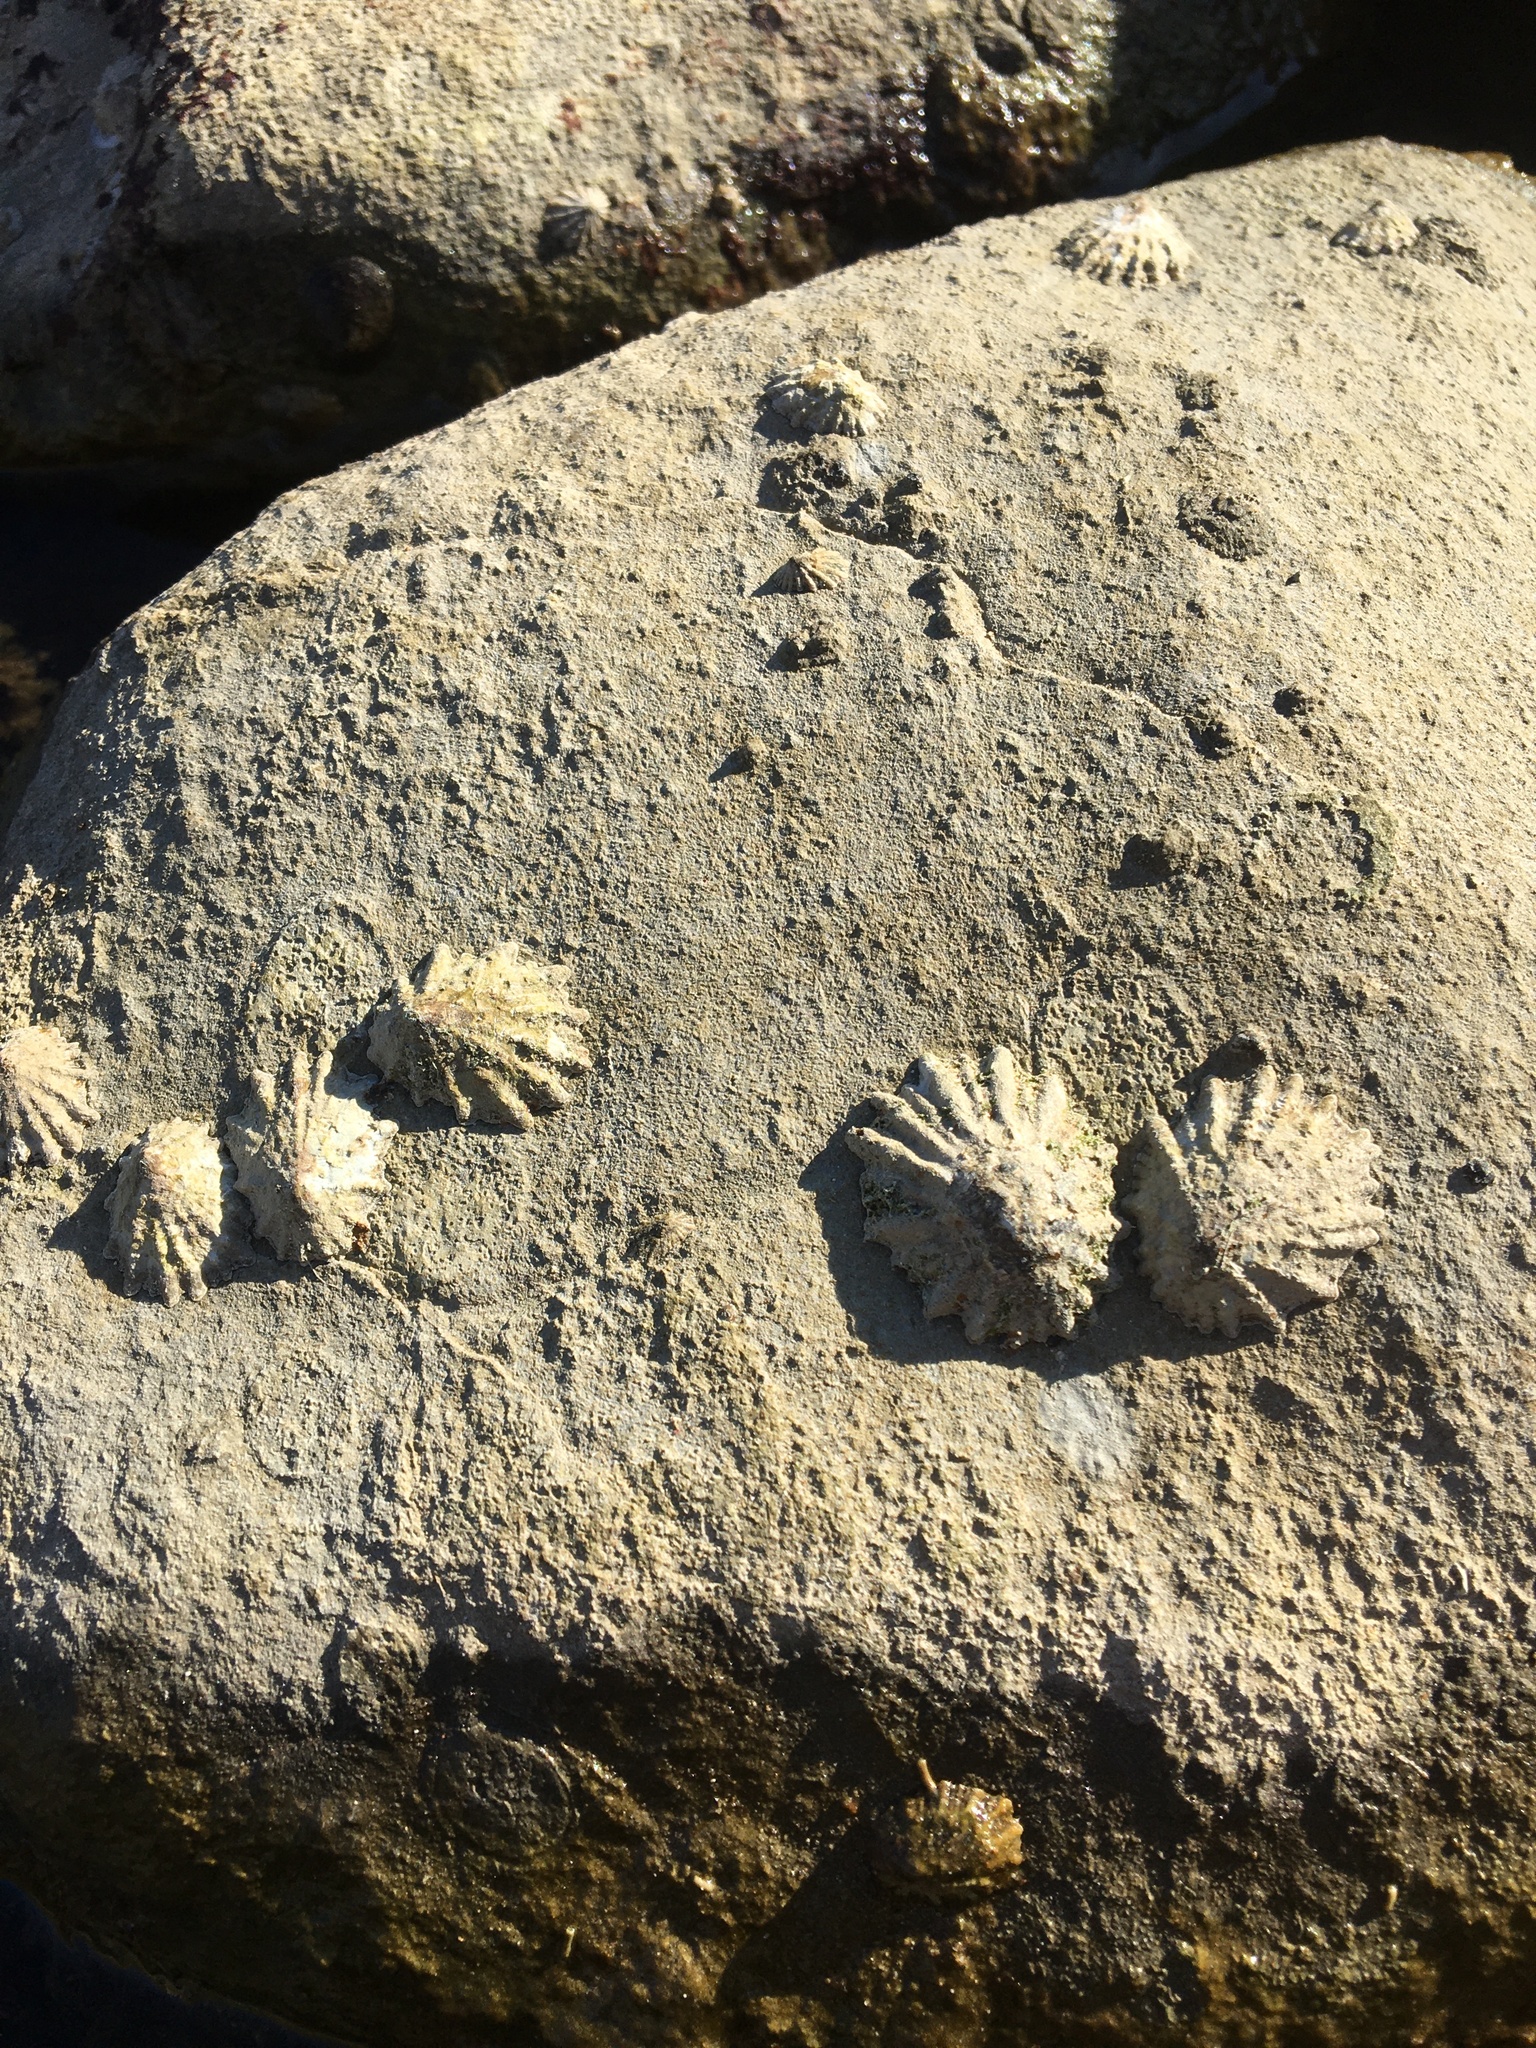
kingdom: Animalia
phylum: Mollusca
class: Gastropoda
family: Lottiidae
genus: Lottia
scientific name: Lottia scabra
